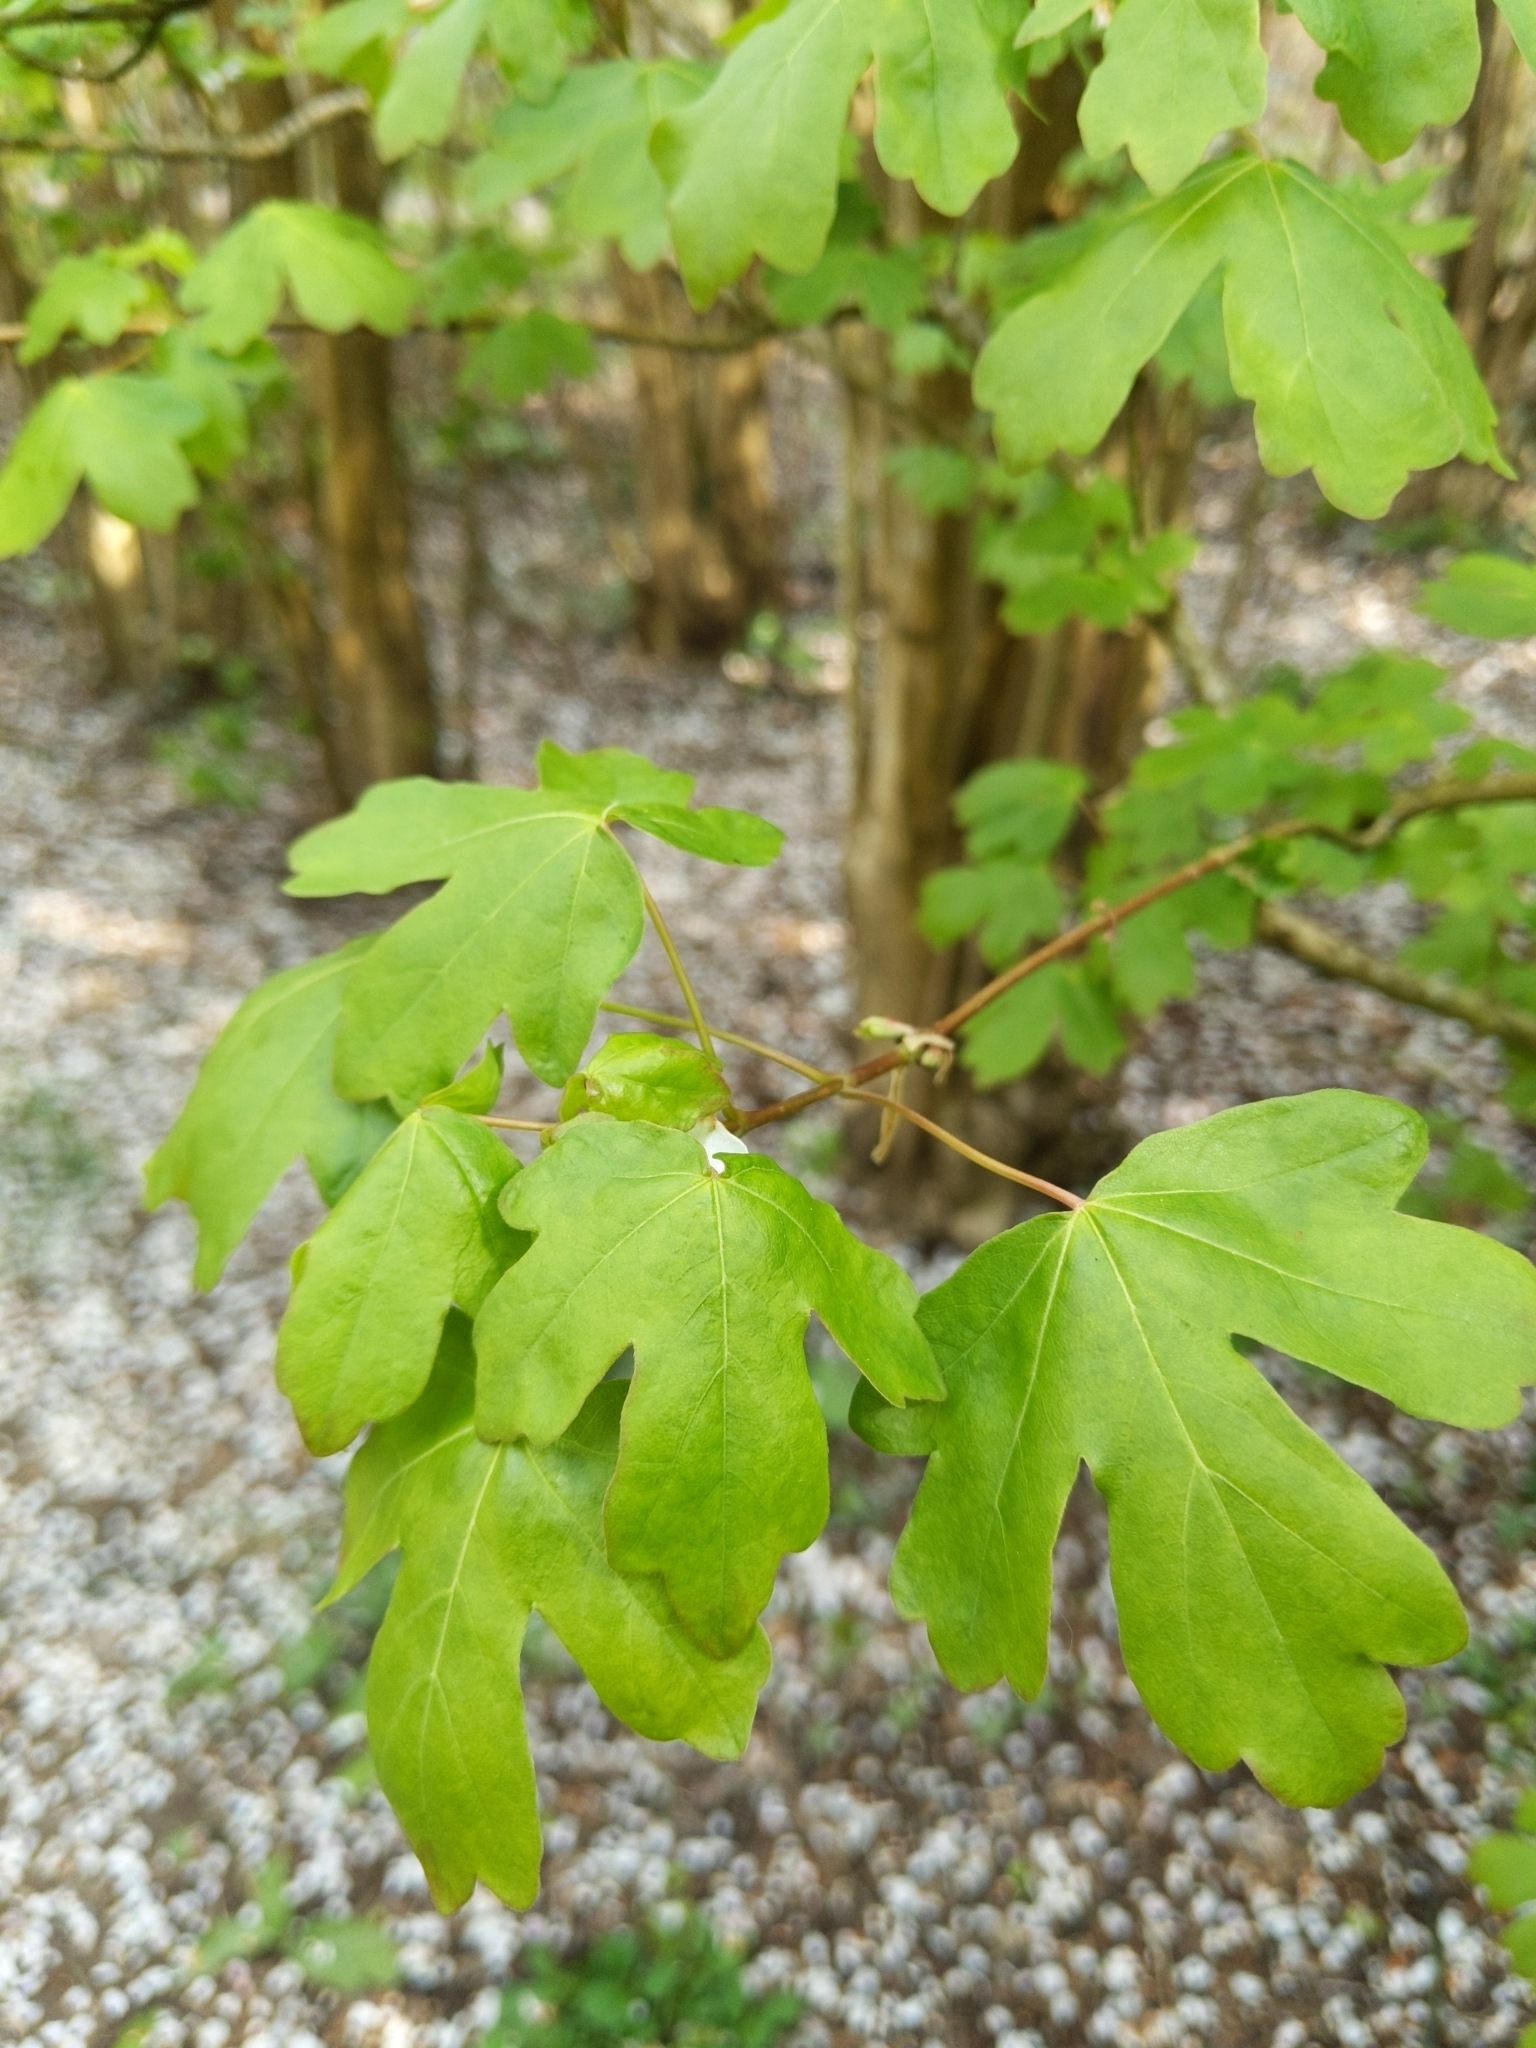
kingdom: Plantae
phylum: Tracheophyta
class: Magnoliopsida
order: Sapindales
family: Sapindaceae
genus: Acer
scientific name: Acer campestre
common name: Field maple
